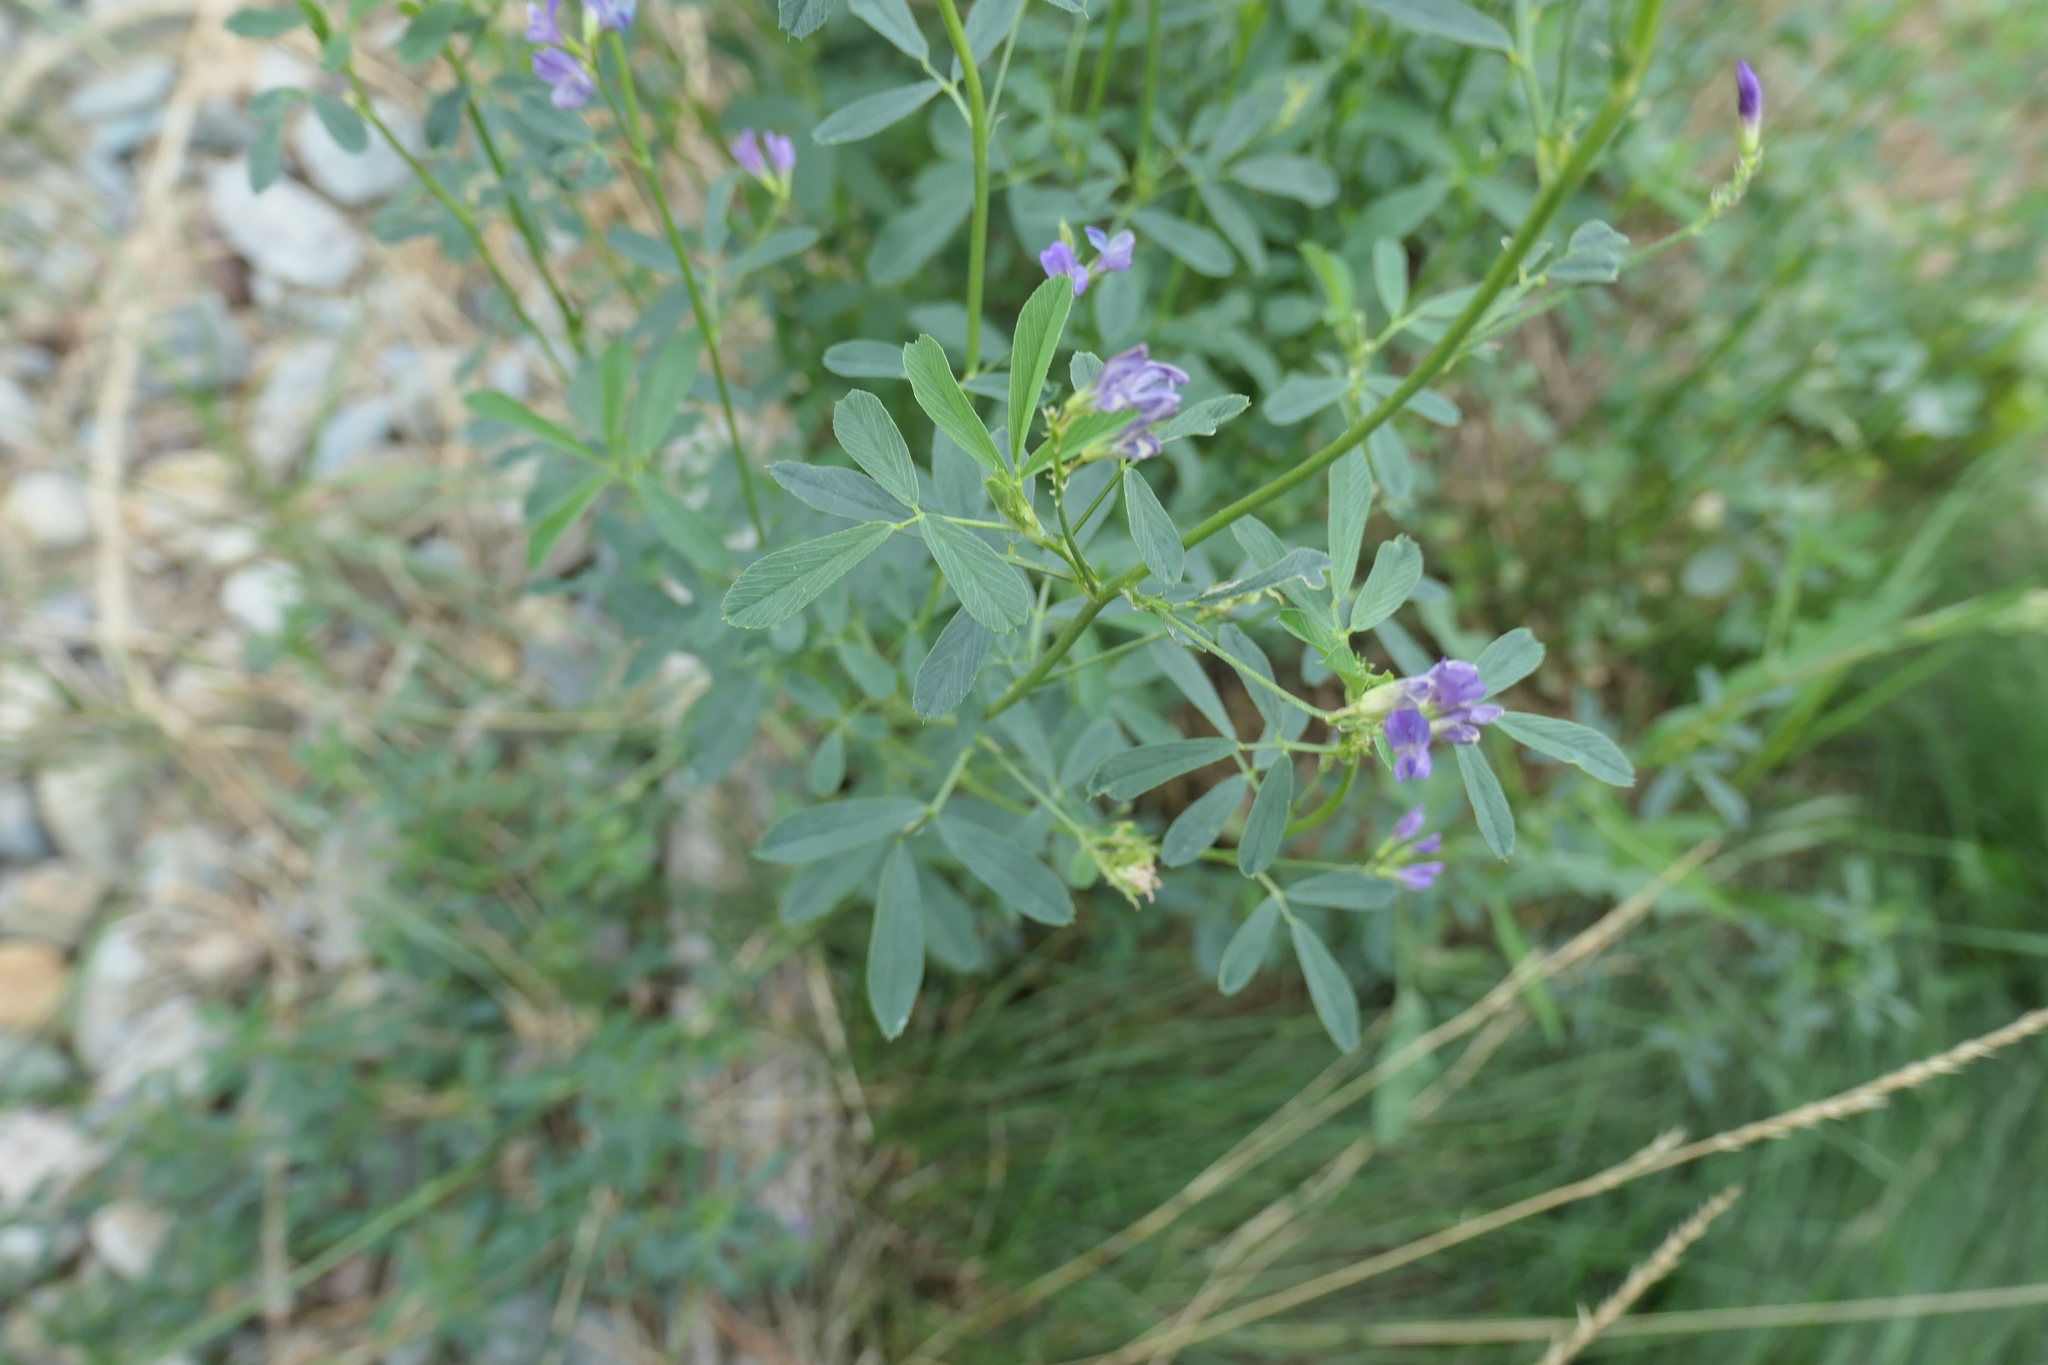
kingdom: Plantae
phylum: Tracheophyta
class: Magnoliopsida
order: Fabales
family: Fabaceae
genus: Medicago
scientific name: Medicago sativa
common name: Alfalfa
